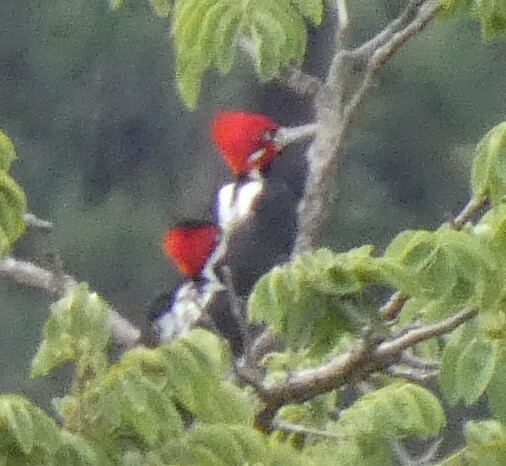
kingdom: Animalia
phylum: Chordata
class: Aves
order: Piciformes
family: Picidae
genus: Campephilus
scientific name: Campephilus melanoleucos
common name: Crimson-crested woodpecker
